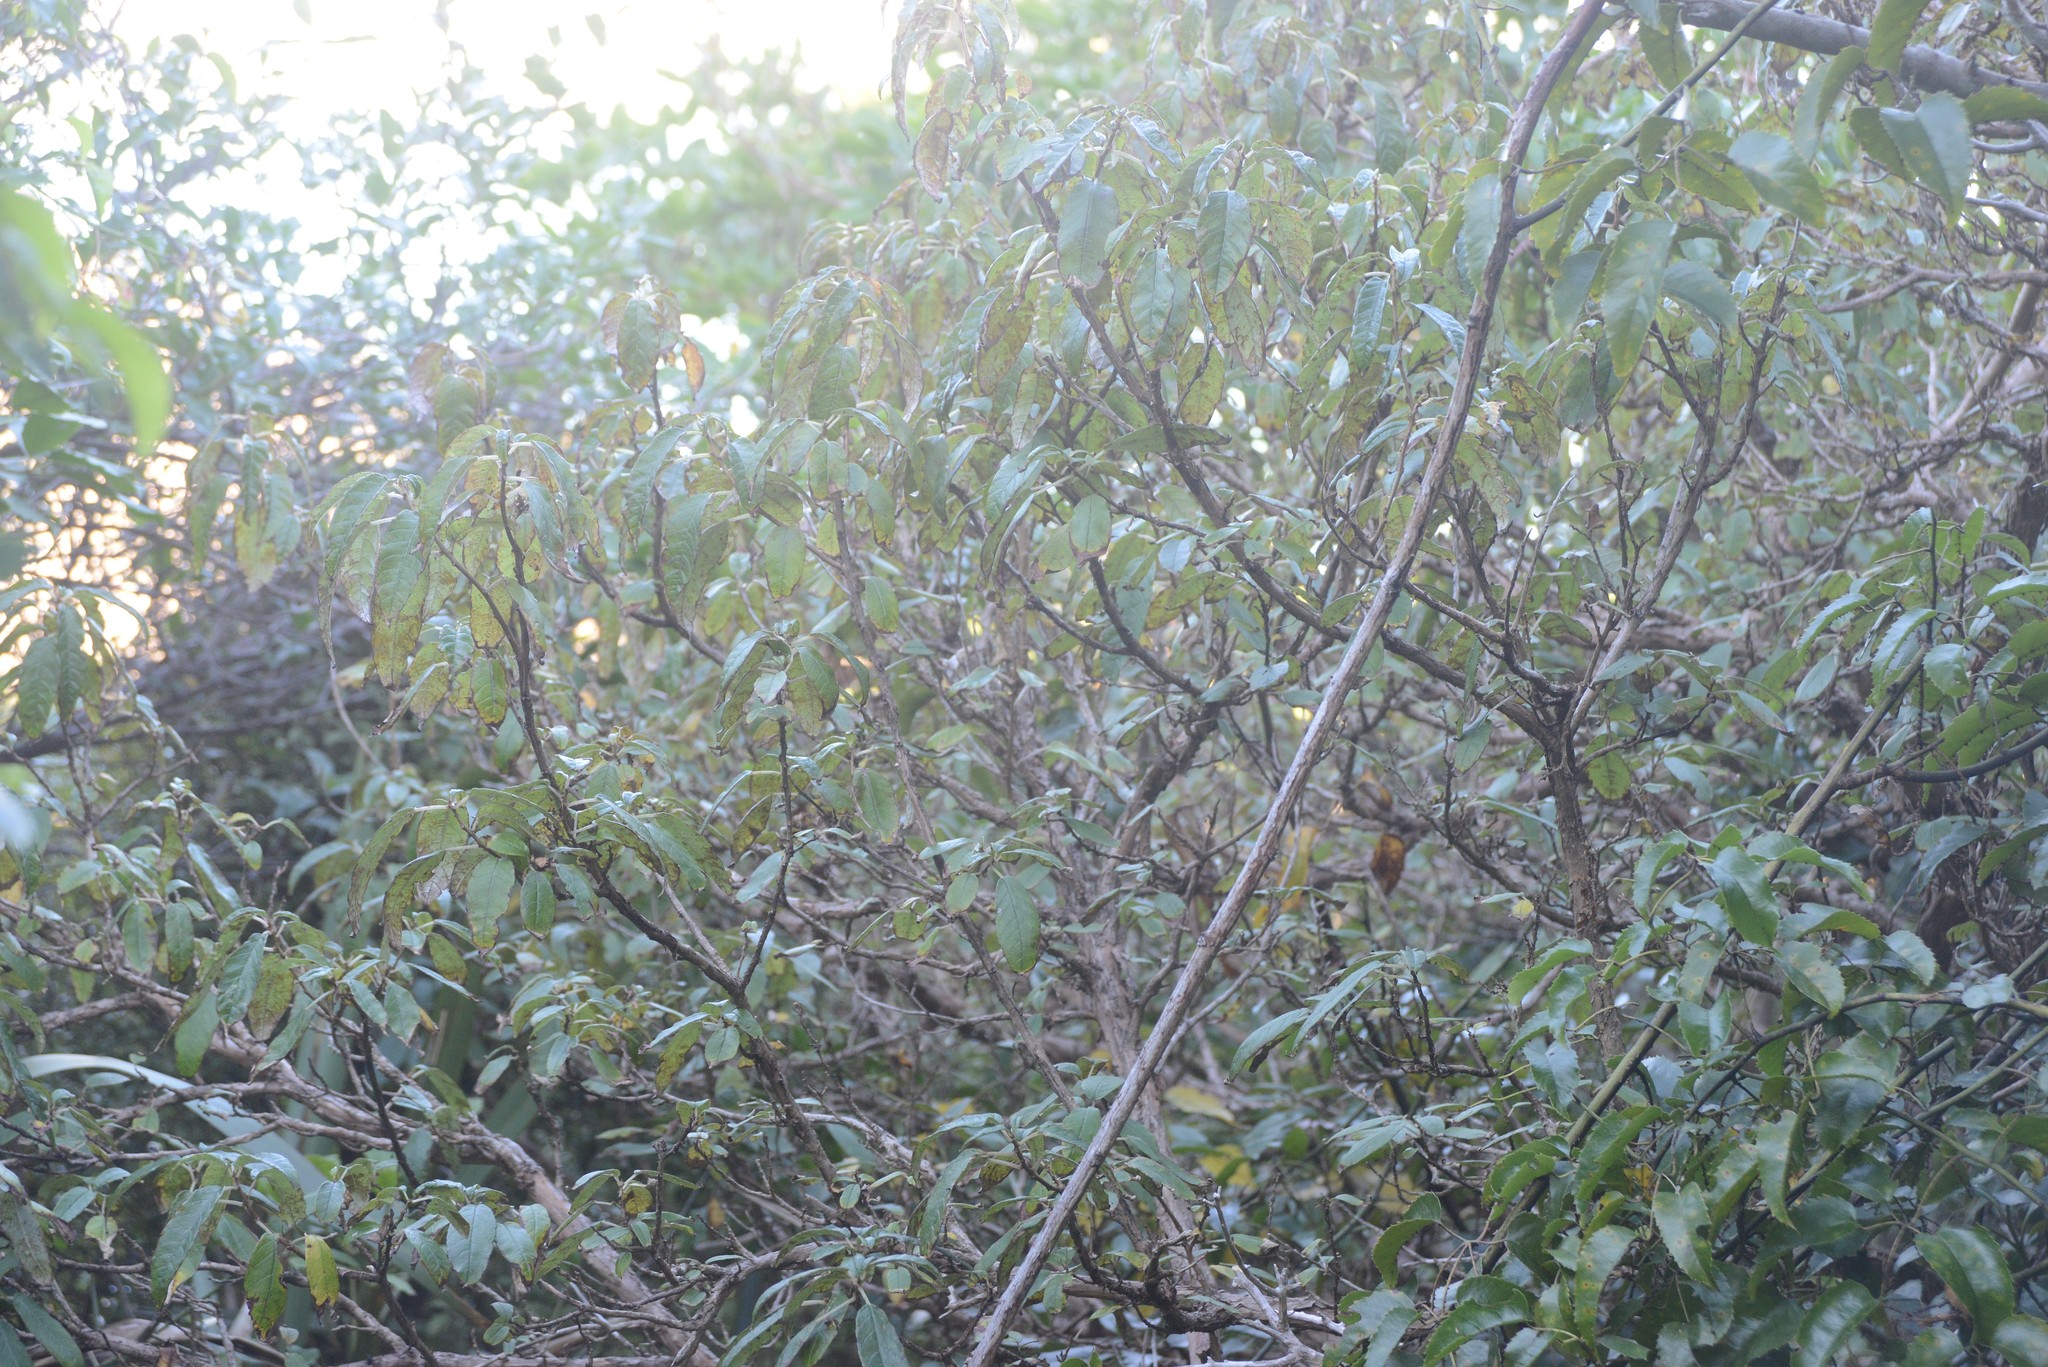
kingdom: Plantae
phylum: Tracheophyta
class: Magnoliopsida
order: Myrtales
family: Onagraceae
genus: Fuchsia
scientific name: Fuchsia excorticata
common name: Tree fuchsia
